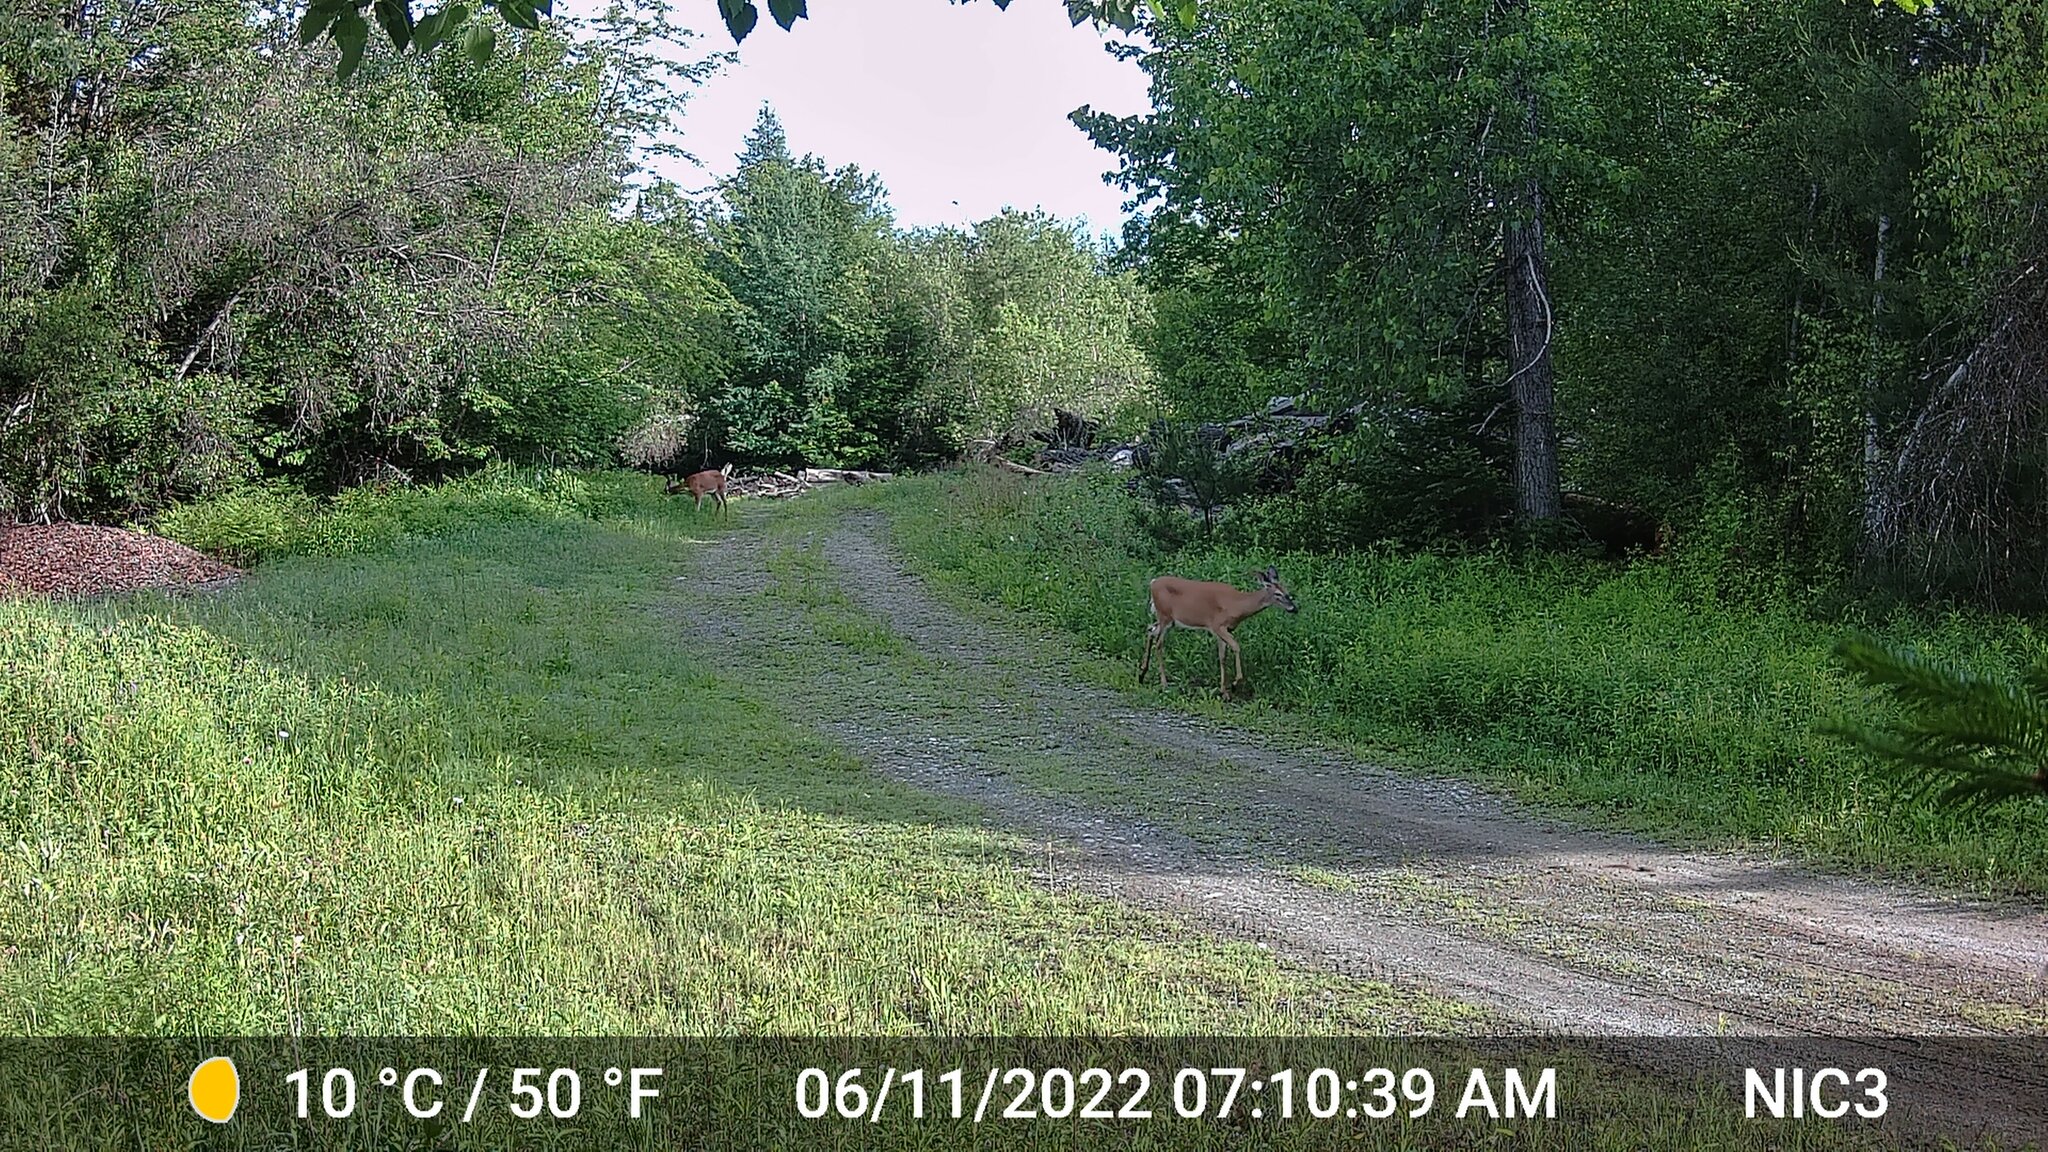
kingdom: Animalia
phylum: Chordata
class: Mammalia
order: Artiodactyla
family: Cervidae
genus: Odocoileus
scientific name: Odocoileus virginianus
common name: White-tailed deer
